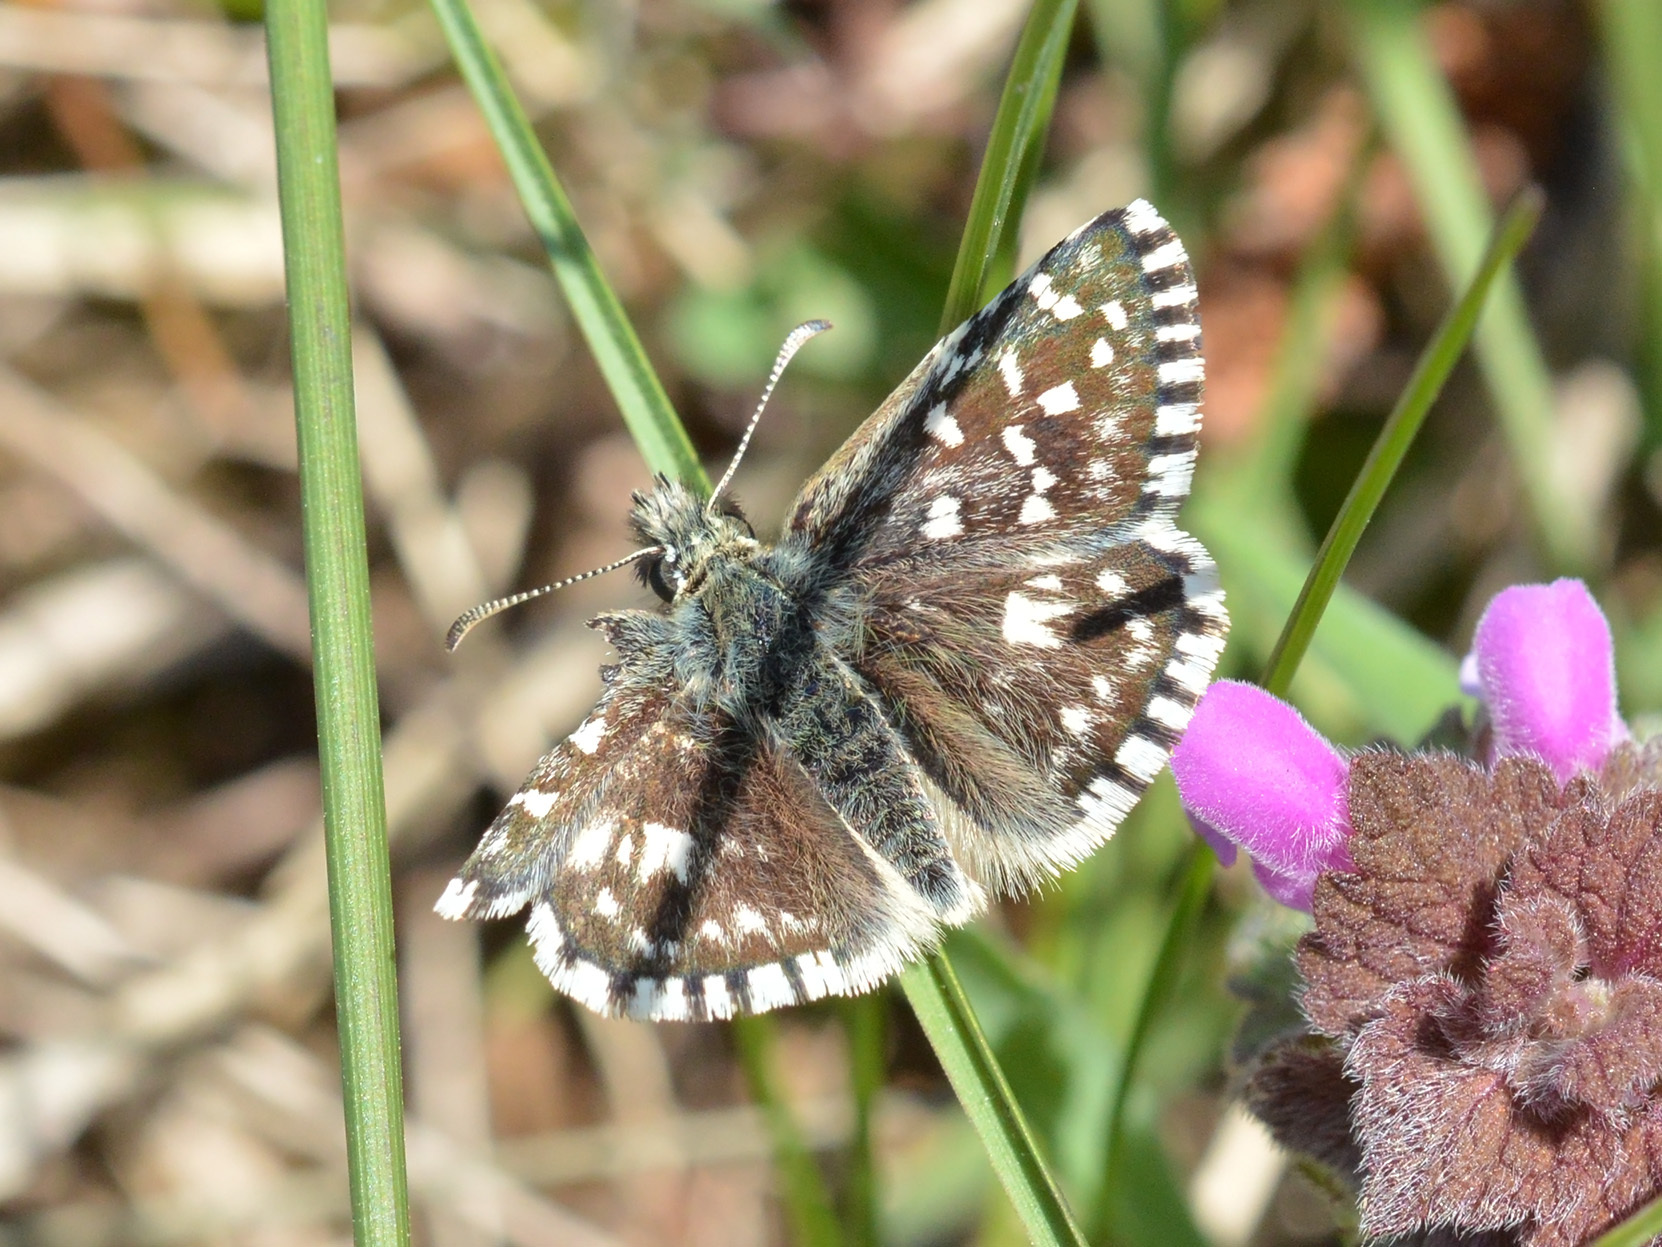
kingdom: Animalia
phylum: Arthropoda
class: Insecta
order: Lepidoptera
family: Hesperiidae
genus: Pyrgus
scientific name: Pyrgus malvae
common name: Grizzled skipper
